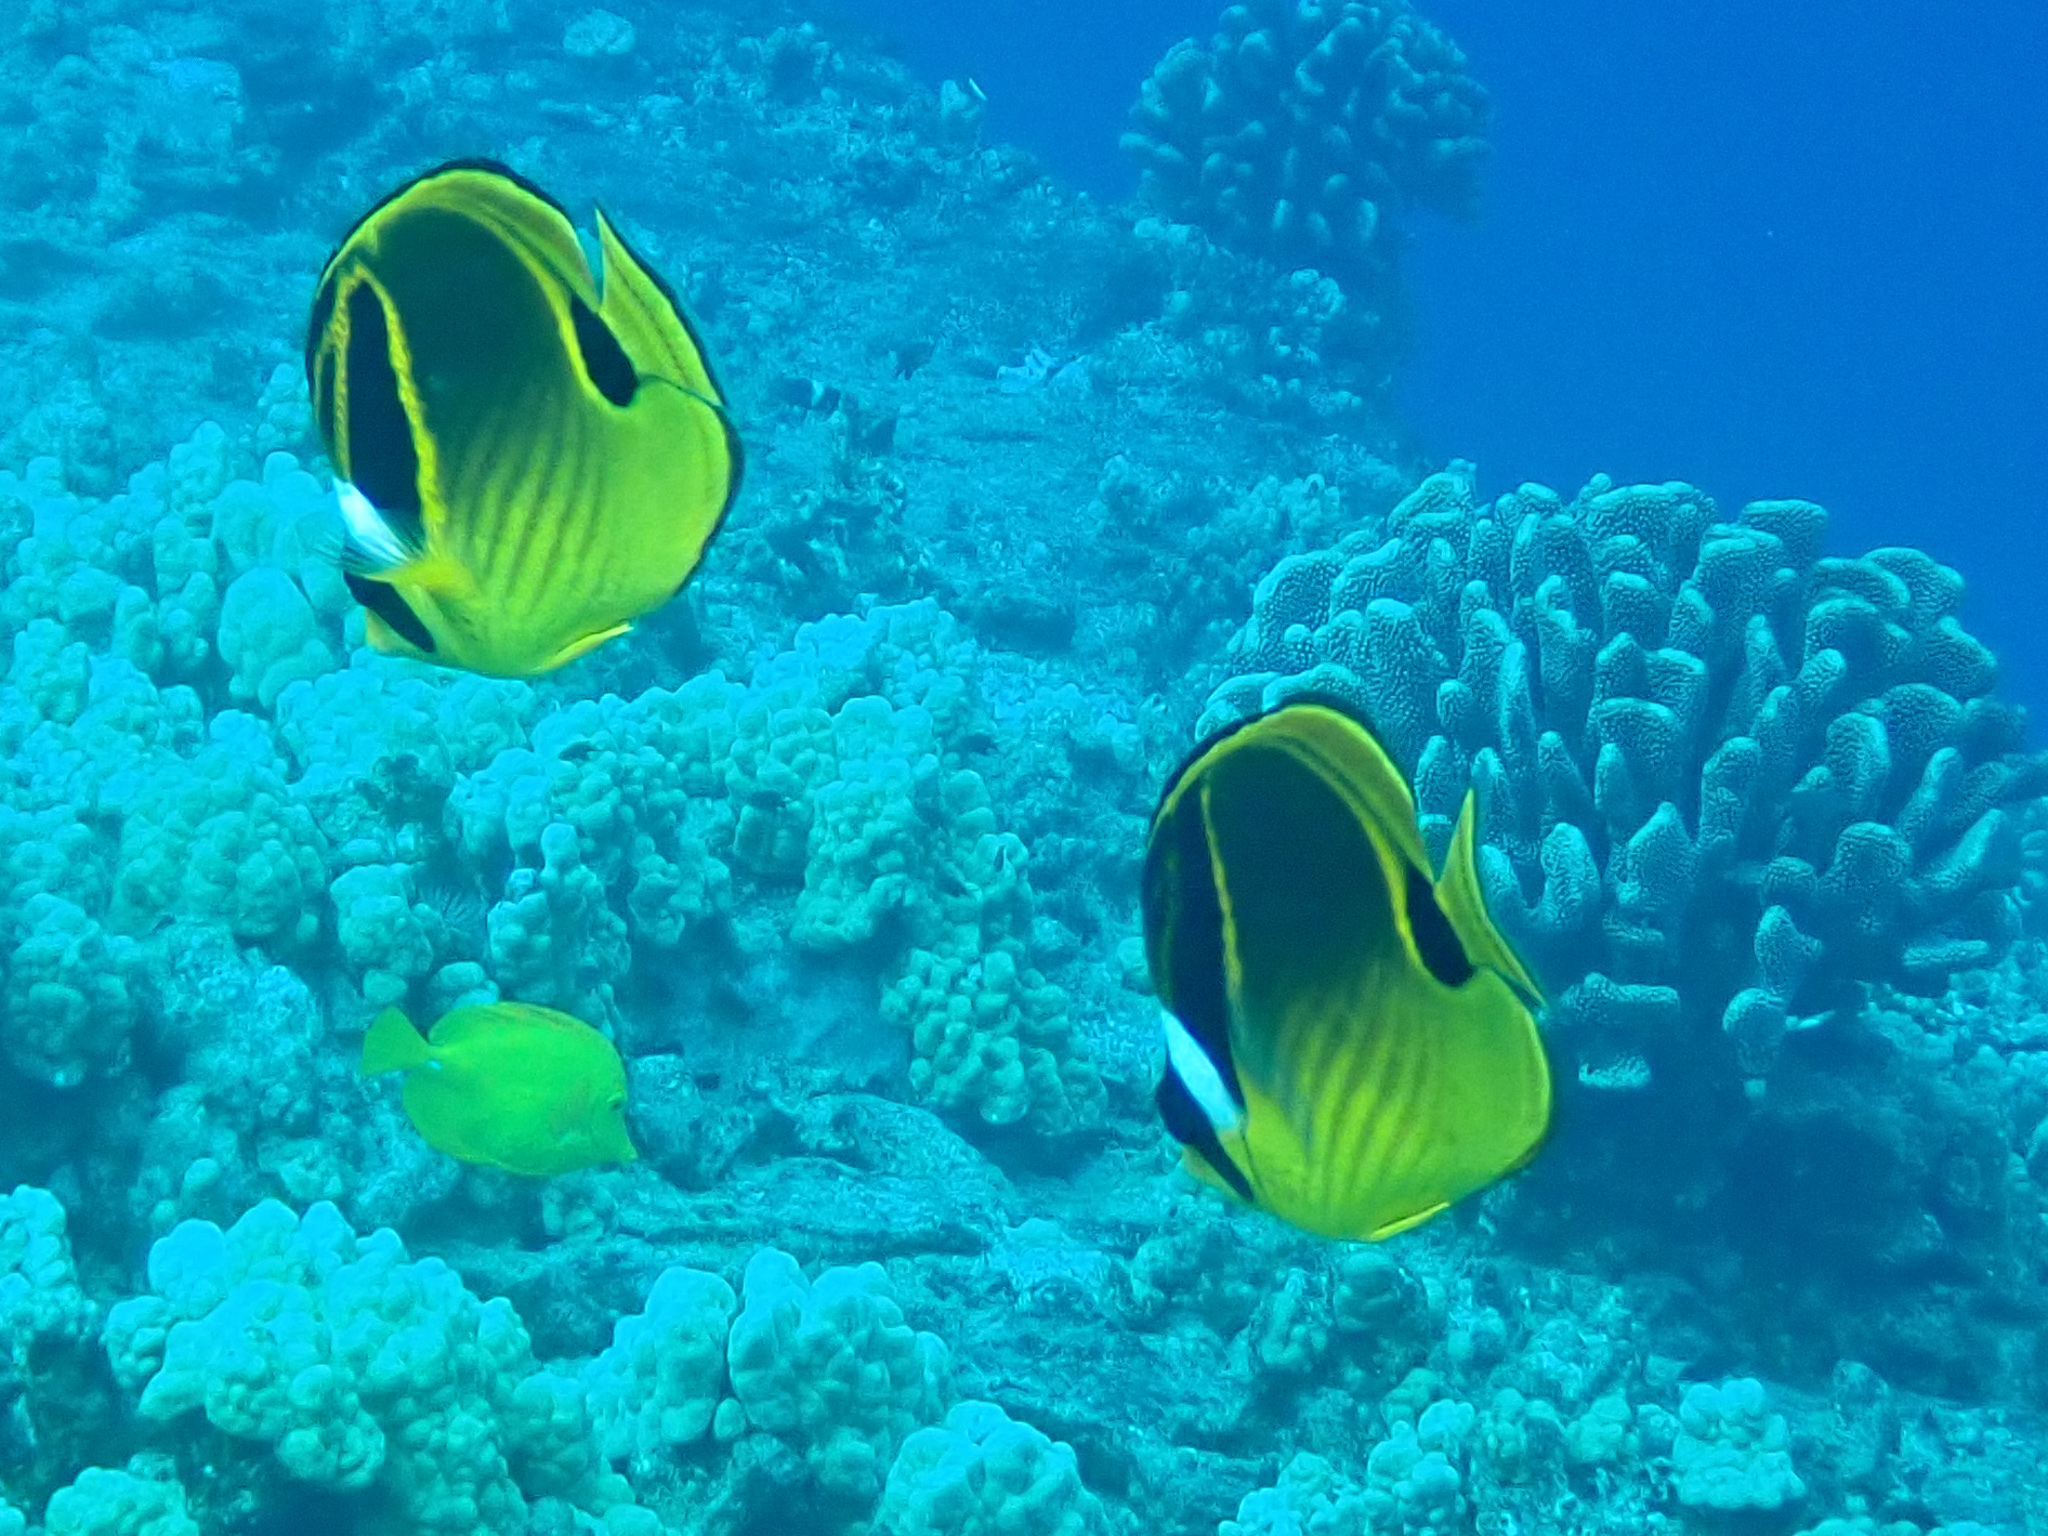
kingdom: Animalia
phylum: Chordata
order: Perciformes
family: Chaetodontidae
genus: Chaetodon
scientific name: Chaetodon lunula
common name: Raccoon butterflyfish
